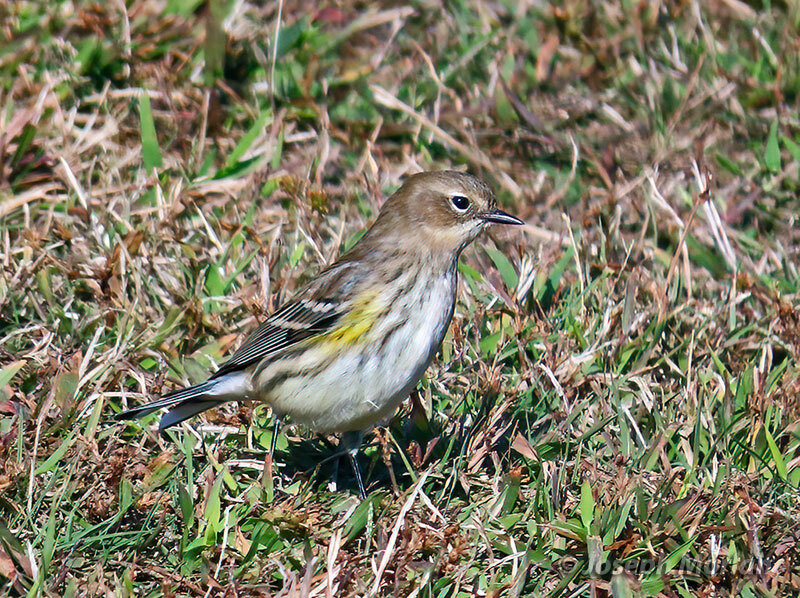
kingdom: Animalia
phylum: Chordata
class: Aves
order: Passeriformes
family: Parulidae
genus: Setophaga
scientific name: Setophaga coronata
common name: Myrtle warbler
